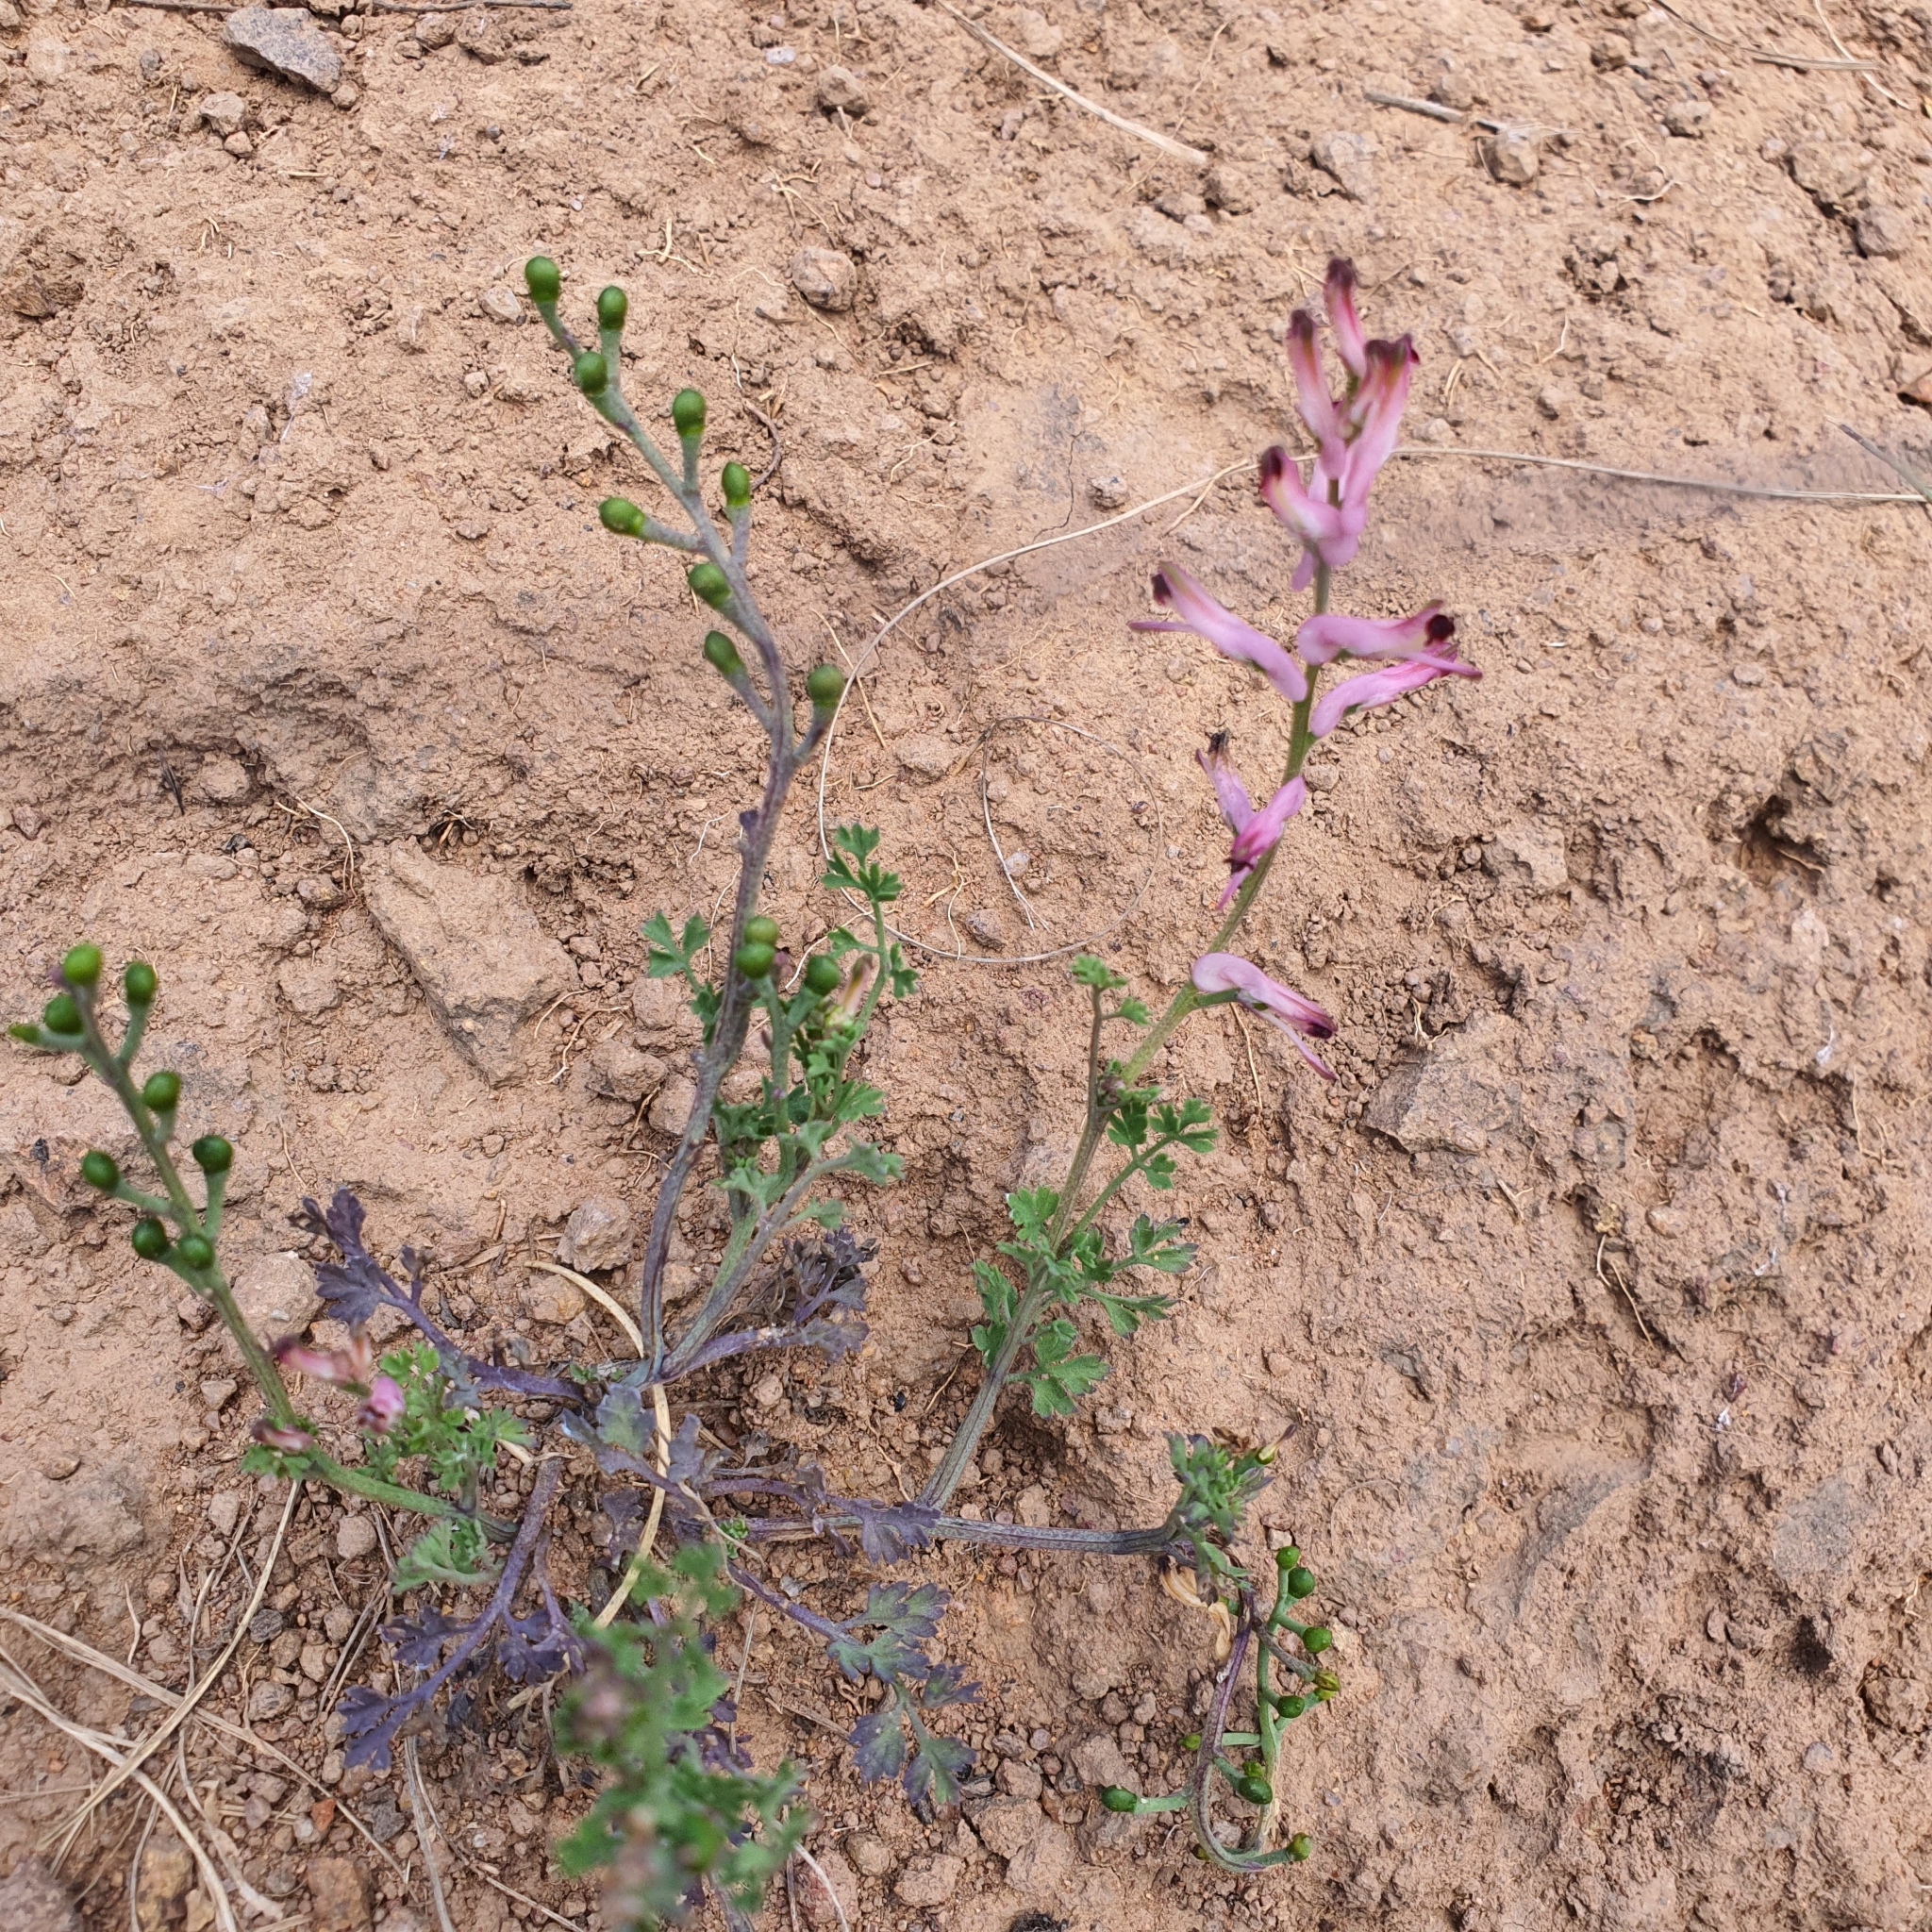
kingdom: Plantae
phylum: Tracheophyta
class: Magnoliopsida
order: Ranunculales
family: Papaveraceae
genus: Fumaria
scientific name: Fumaria bastardii
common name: Tall ramping-fumitory
